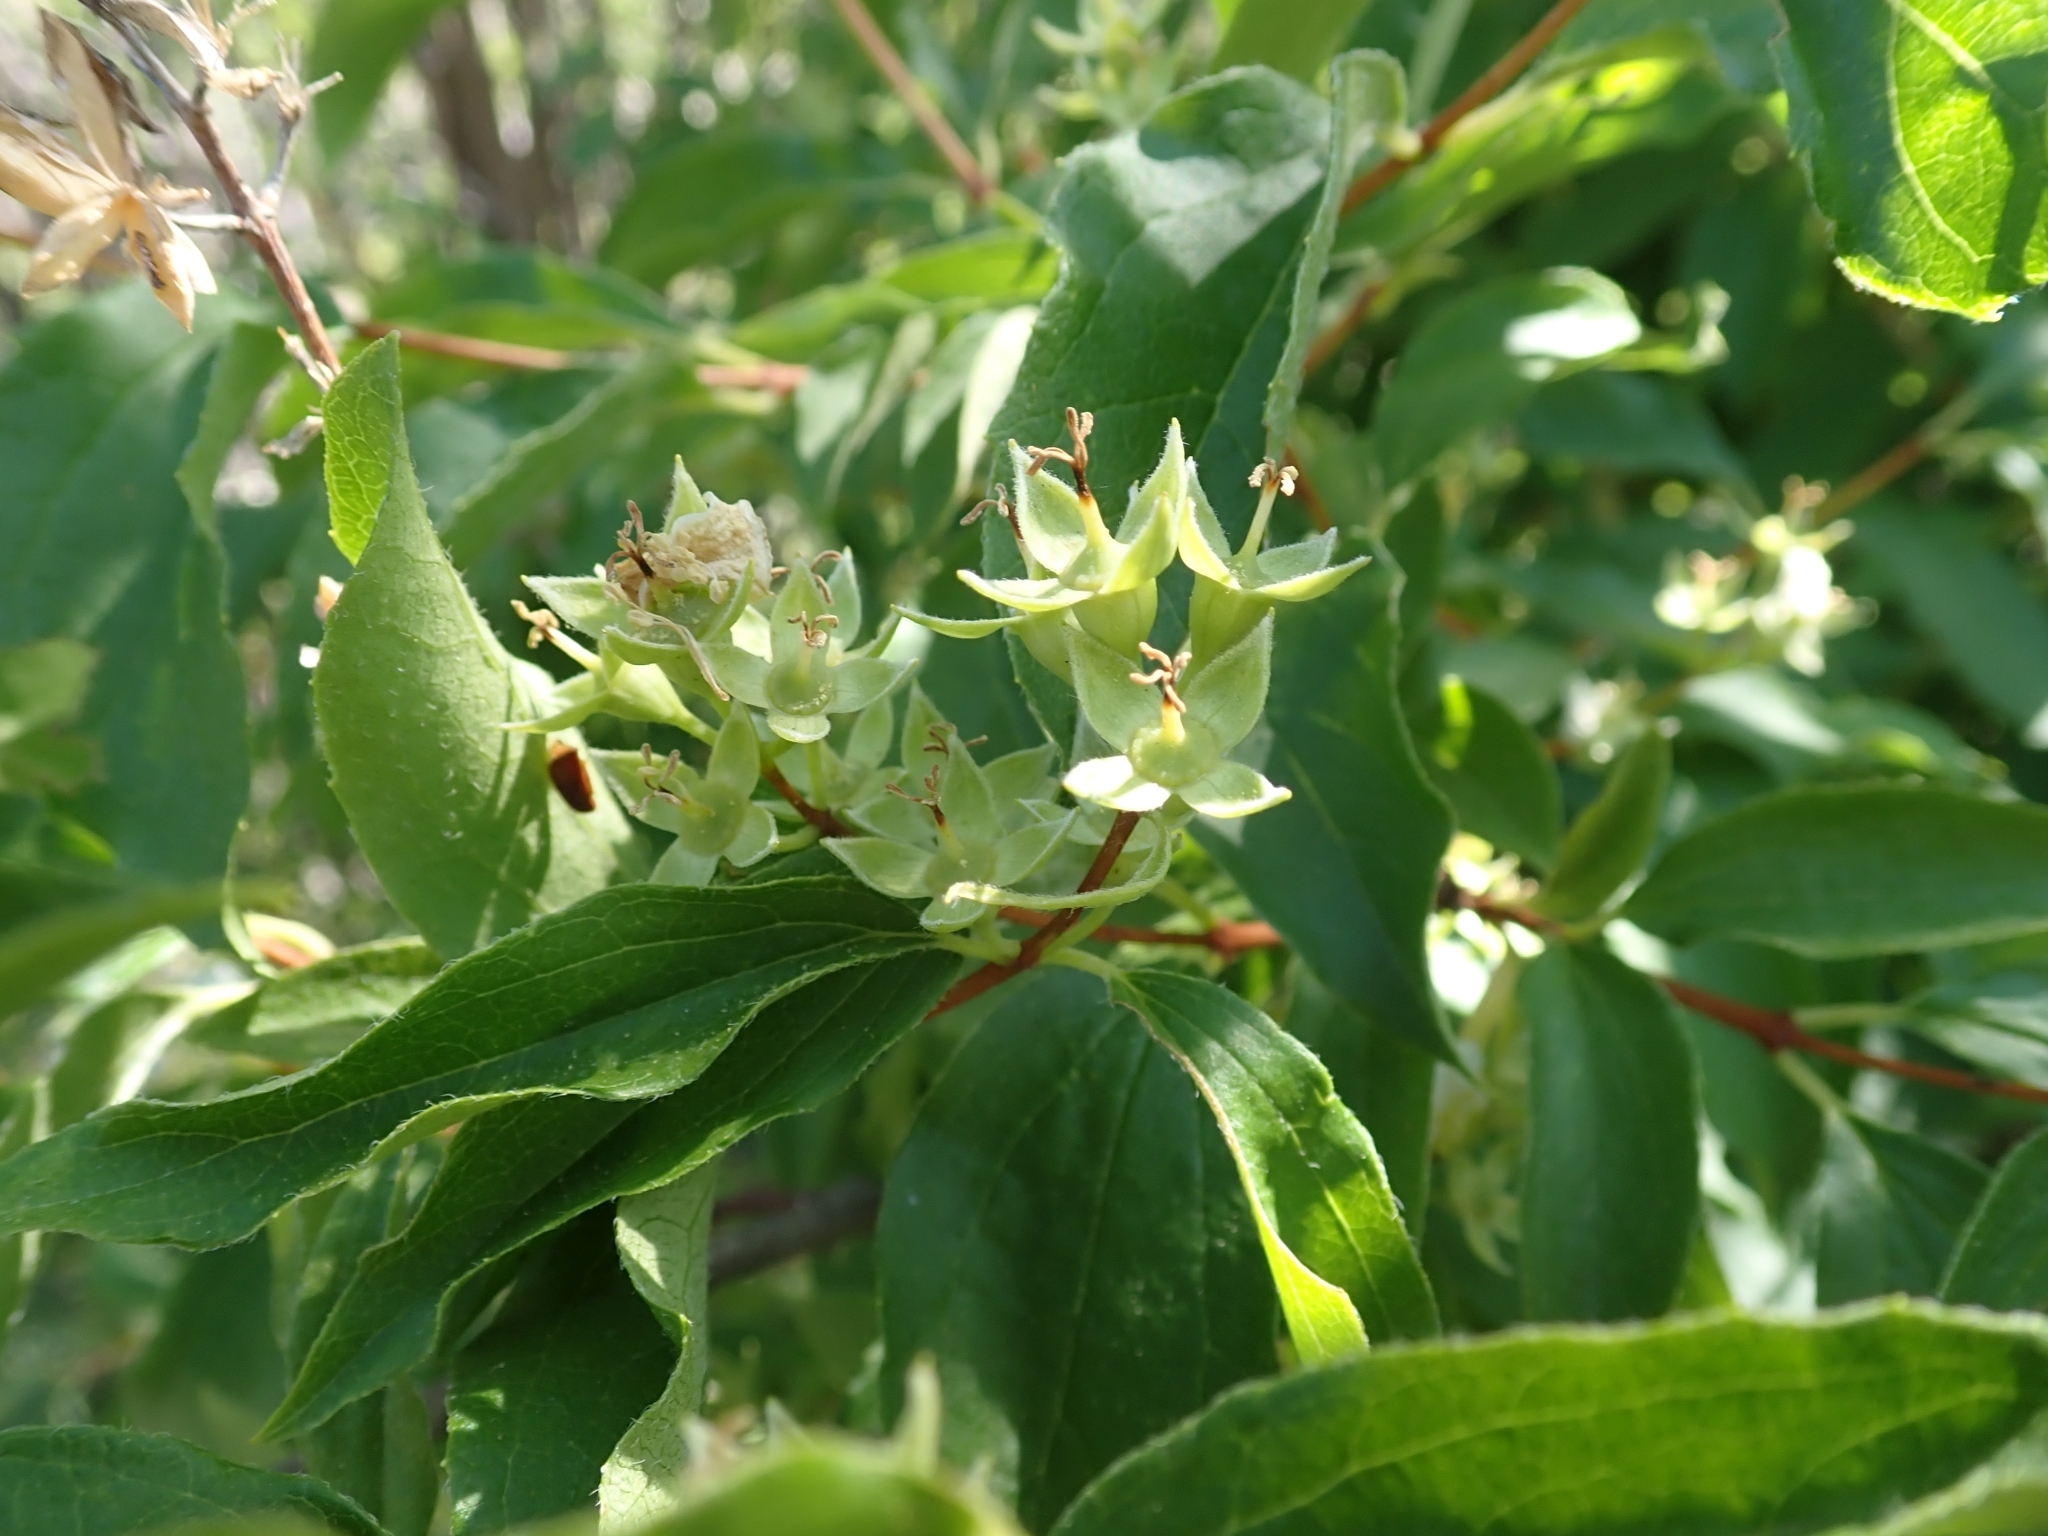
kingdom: Plantae
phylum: Tracheophyta
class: Magnoliopsida
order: Cornales
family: Hydrangeaceae
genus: Philadelphus
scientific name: Philadelphus lewisii
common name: Lewis's mock orange
